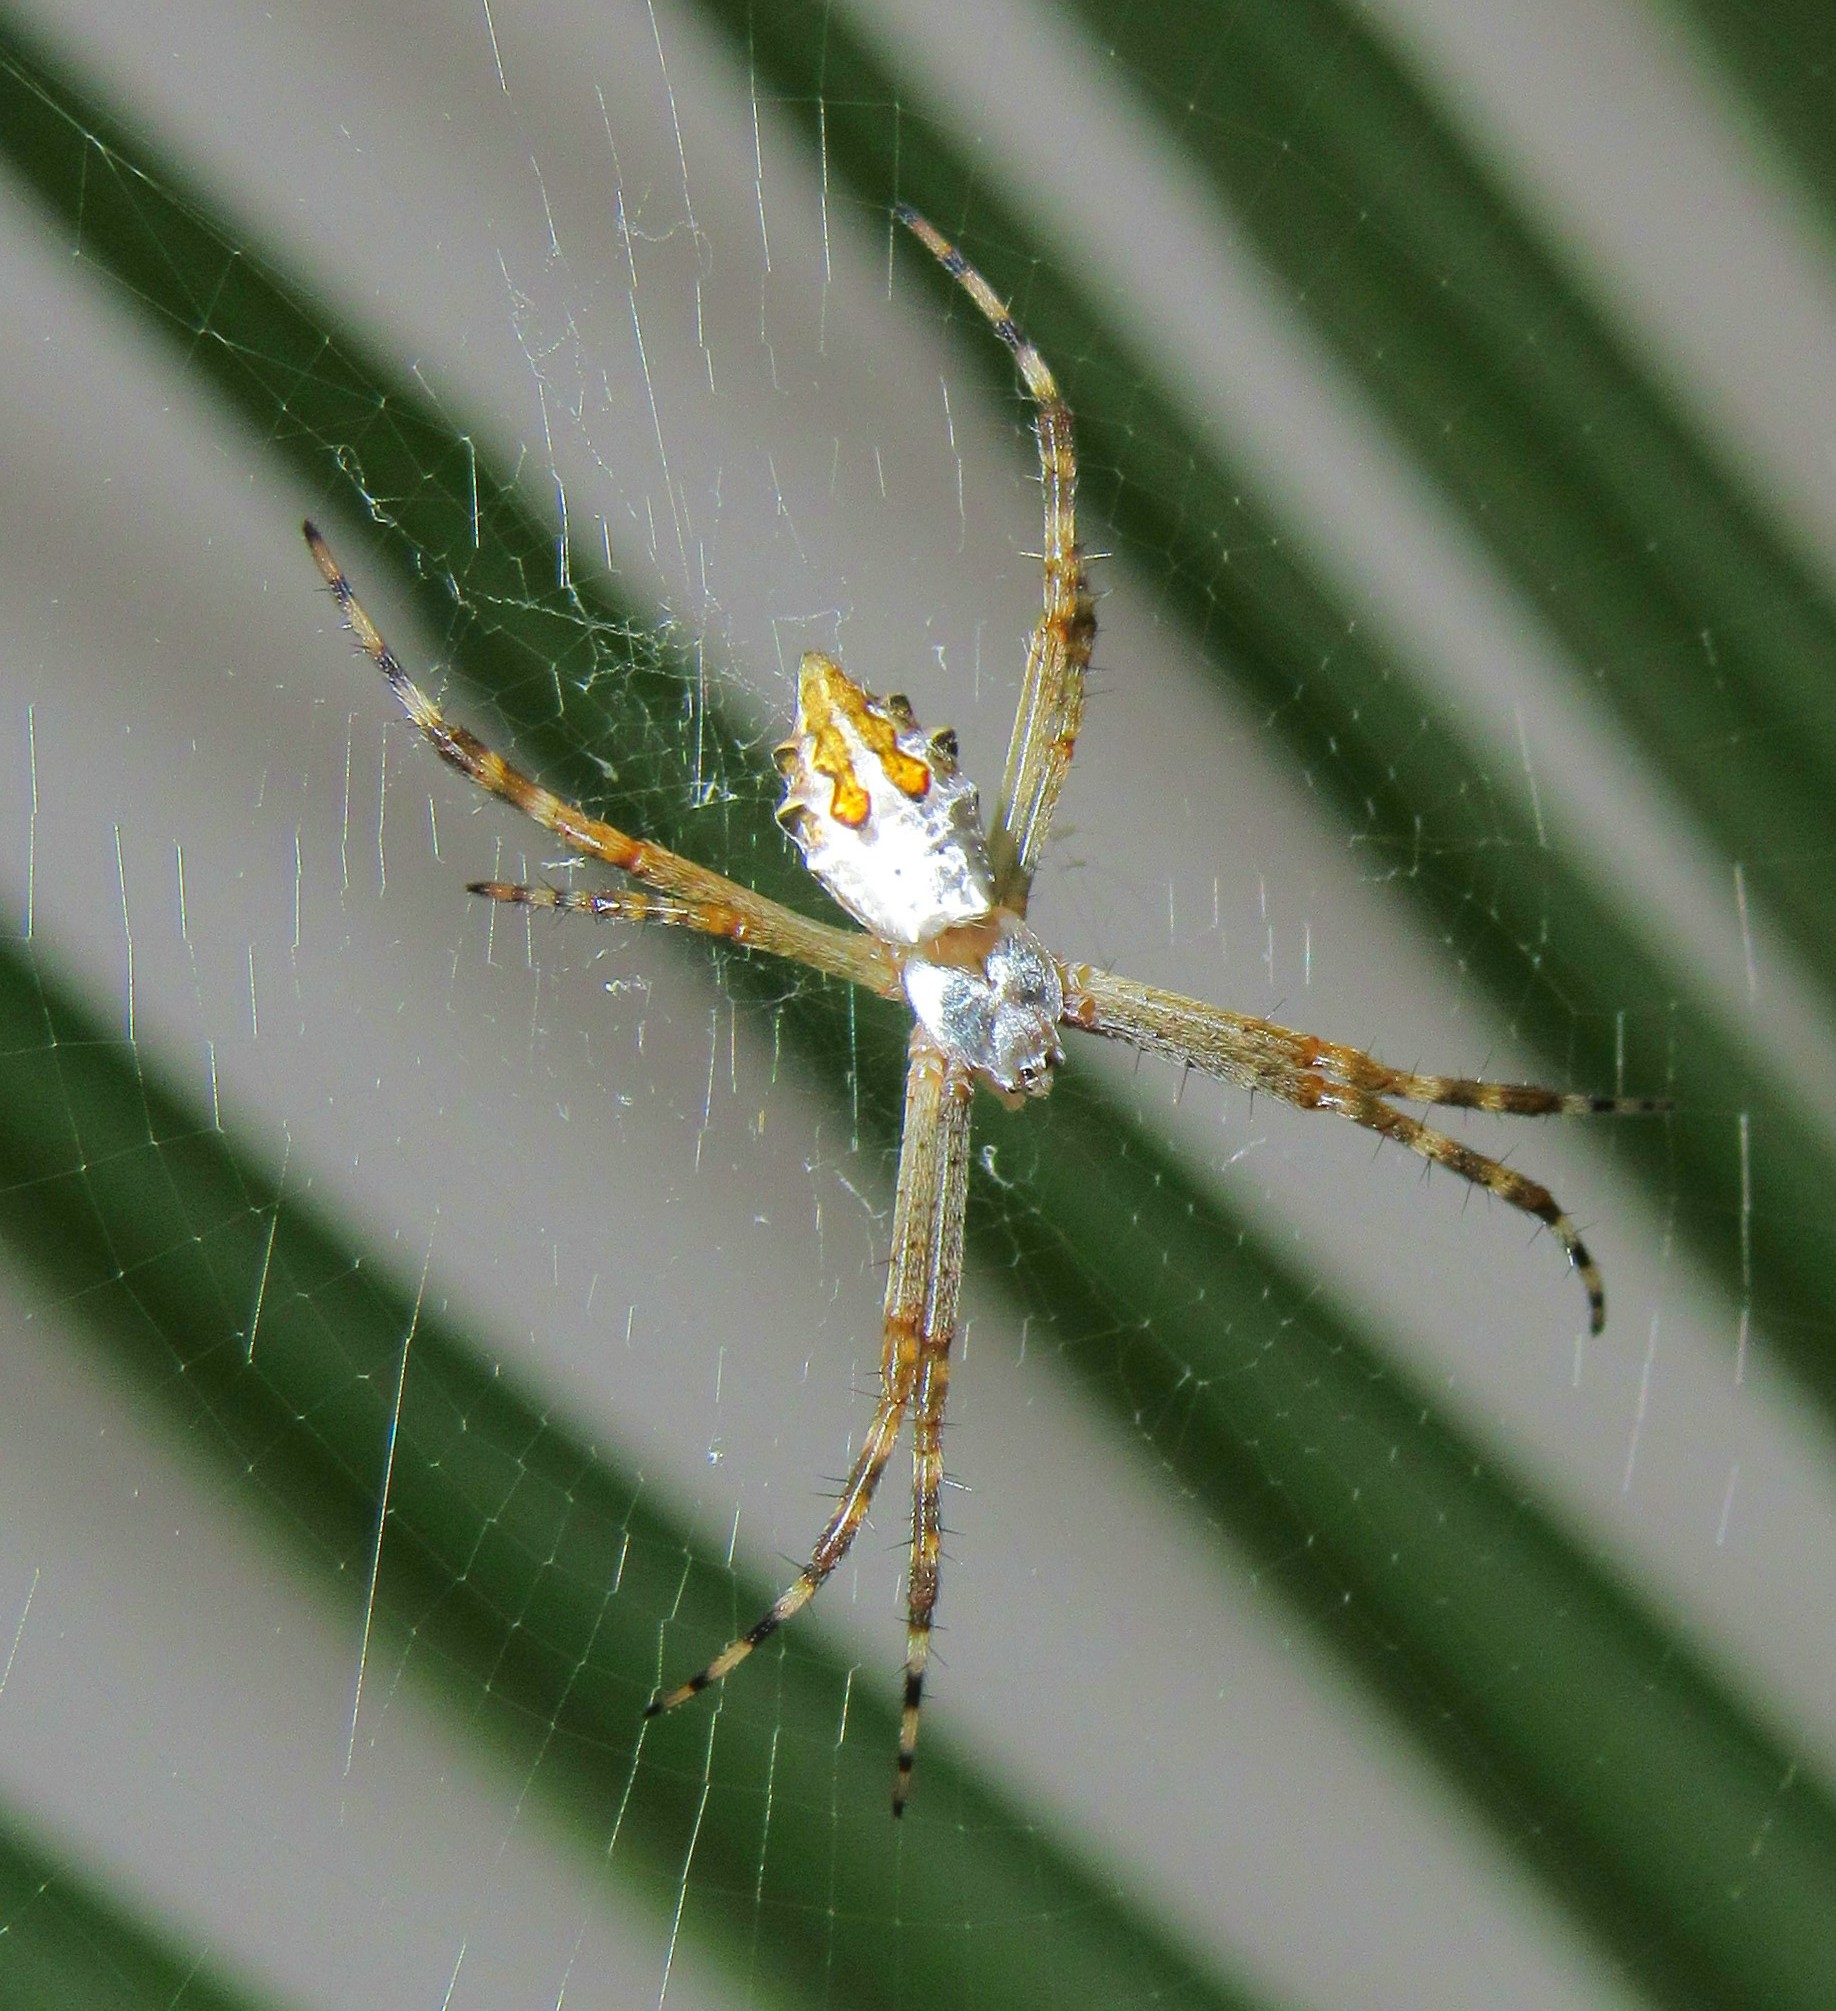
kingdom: Animalia
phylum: Arthropoda
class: Arachnida
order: Araneae
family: Araneidae
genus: Argiope
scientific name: Argiope argentata
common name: Orb weavers
